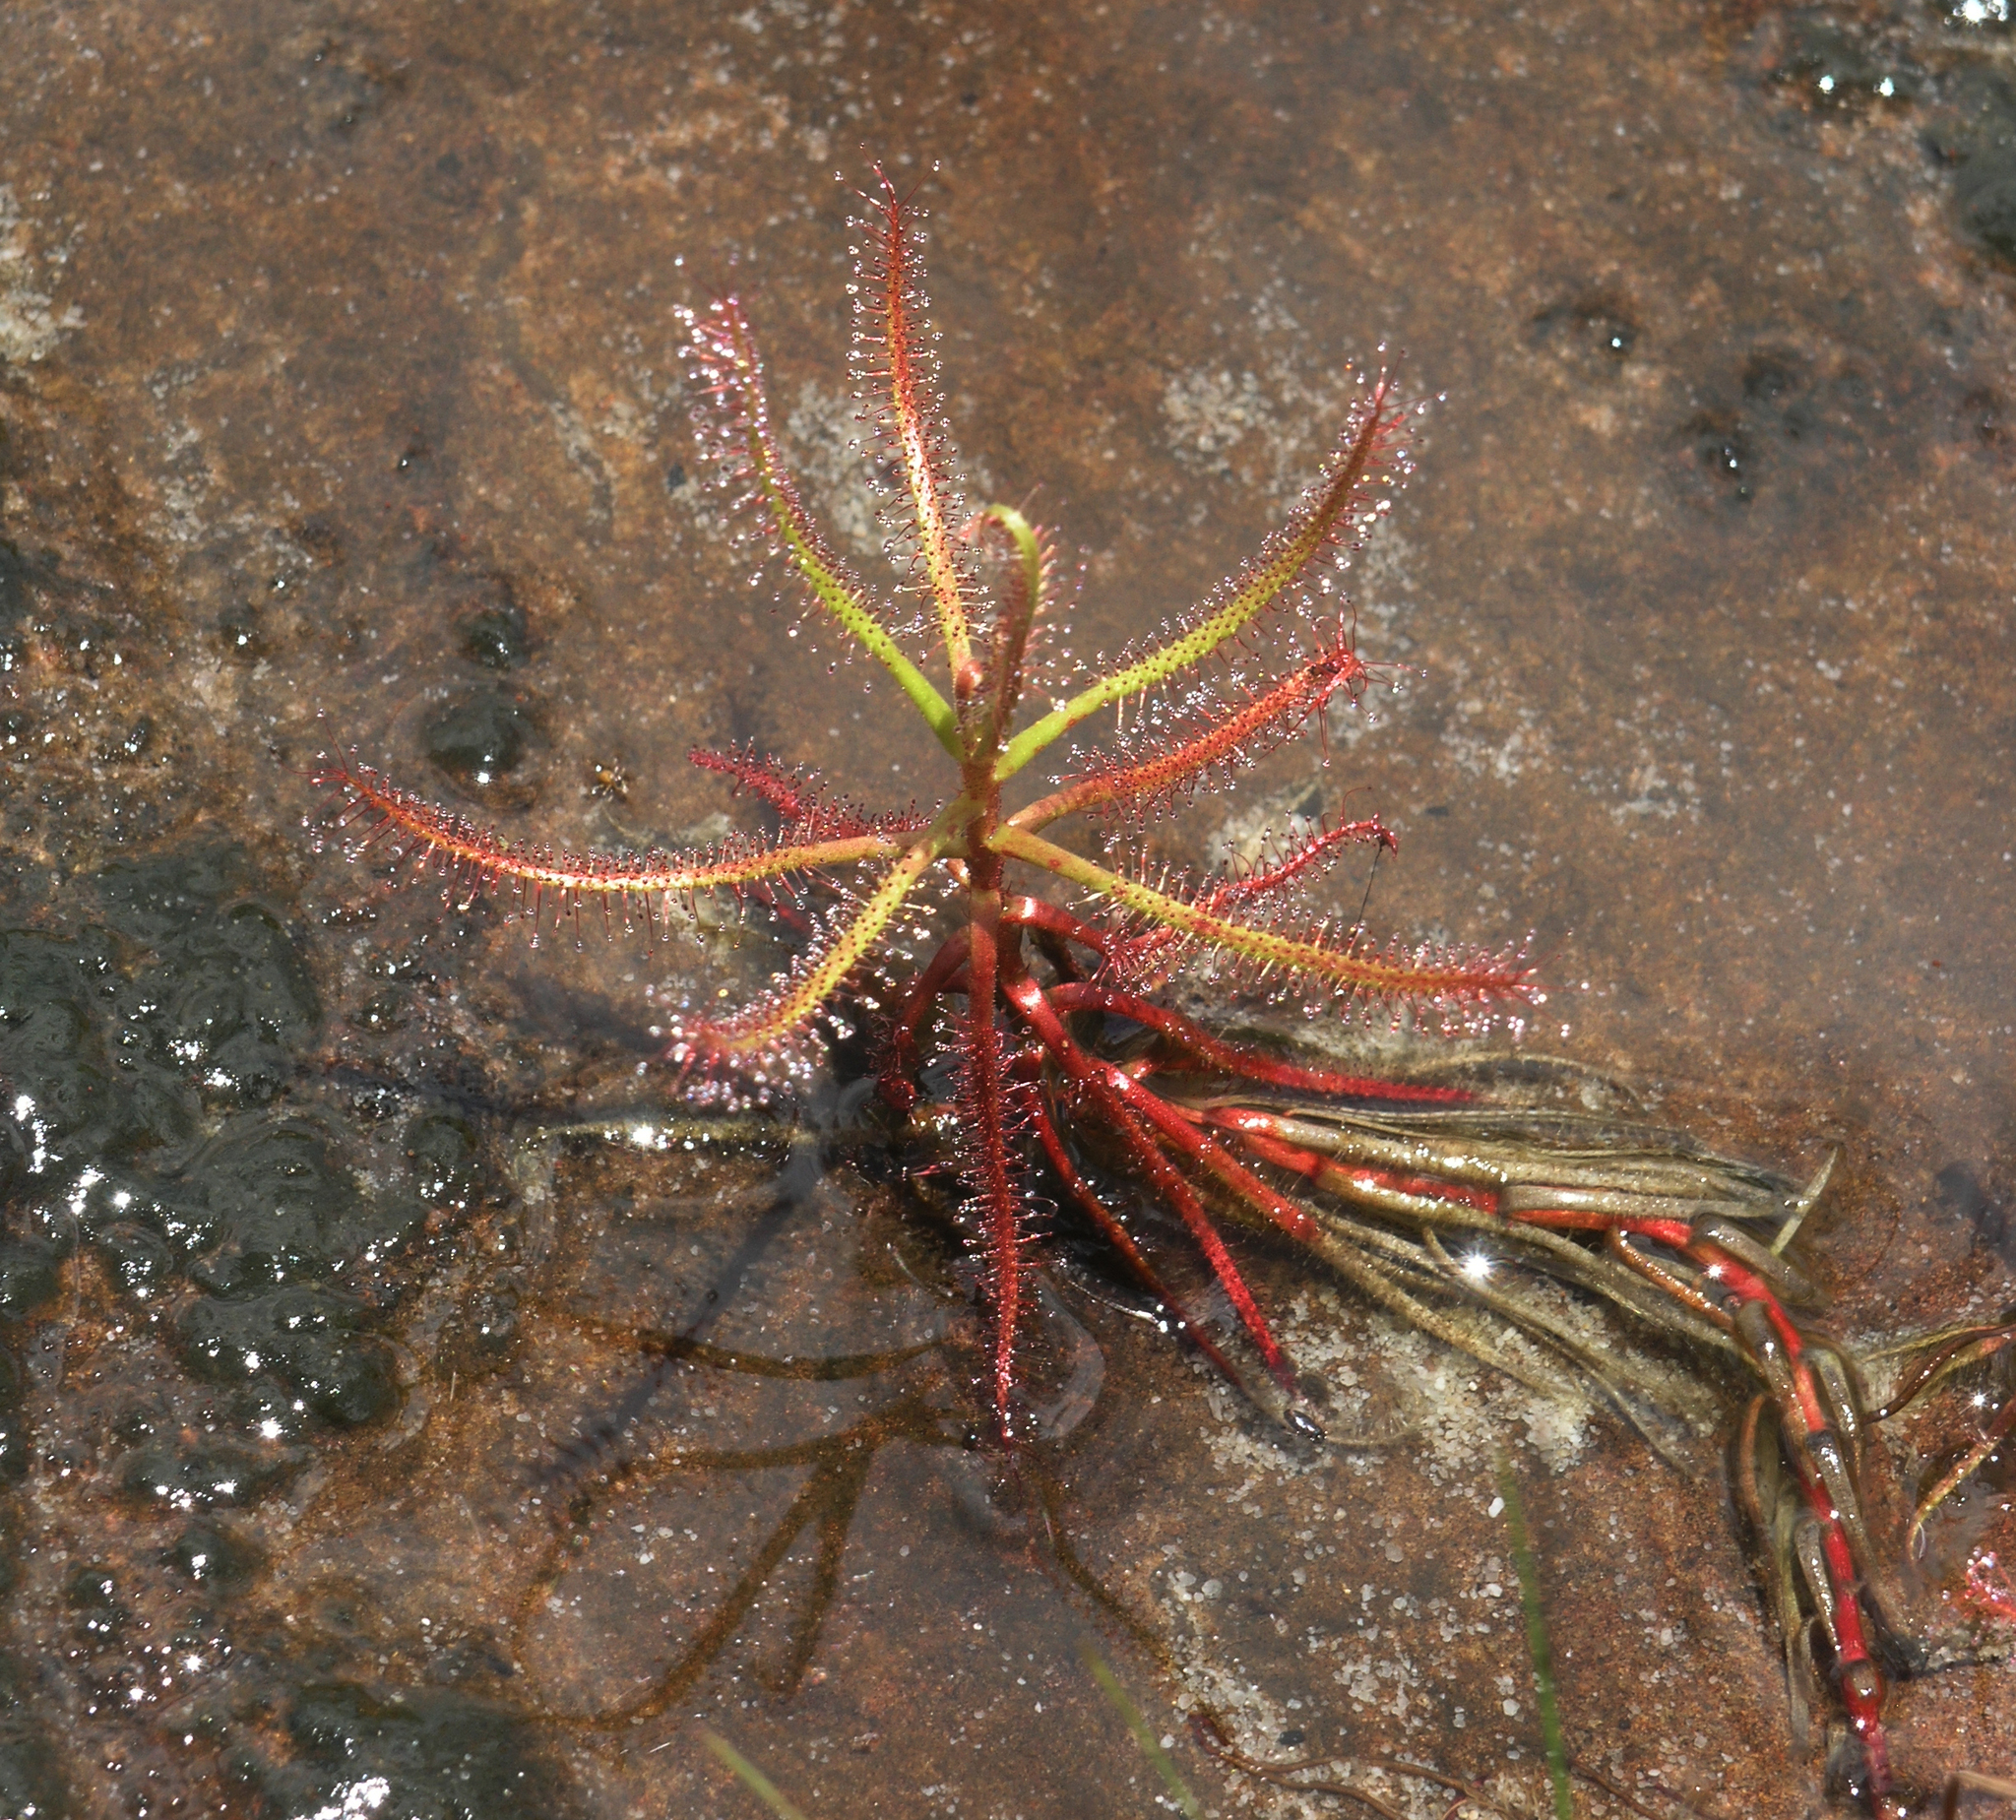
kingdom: Plantae
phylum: Tracheophyta
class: Magnoliopsida
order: Caryophyllales
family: Droseraceae
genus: Drosera
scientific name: Drosera indica
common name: Indian sundew
